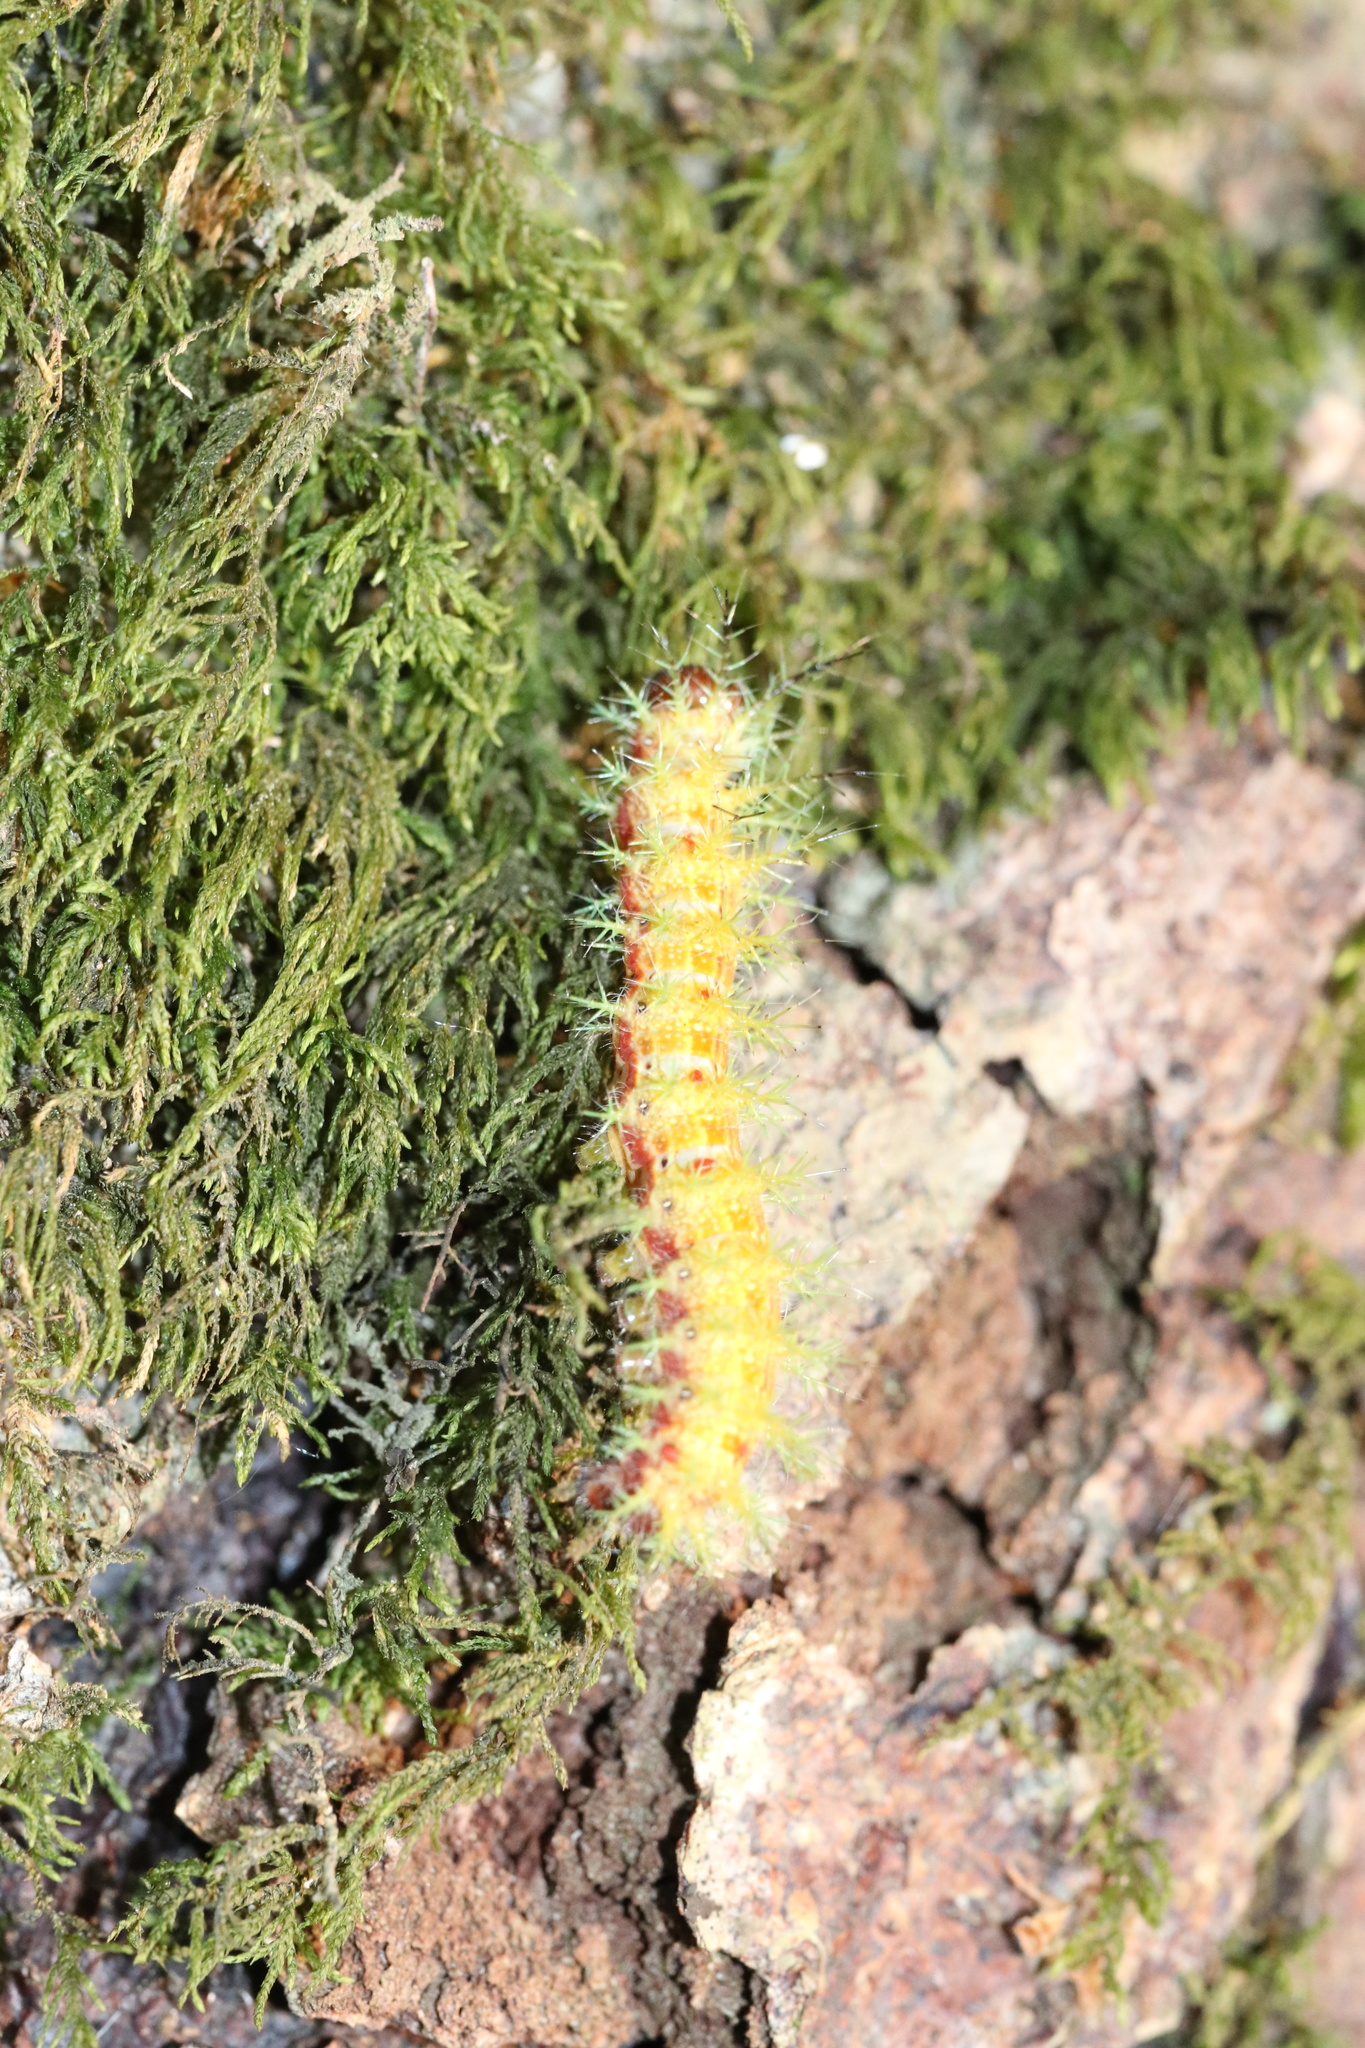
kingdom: Animalia
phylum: Arthropoda
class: Insecta
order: Lepidoptera
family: Saturniidae
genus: Ormiscodes
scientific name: Ormiscodes amphinome
